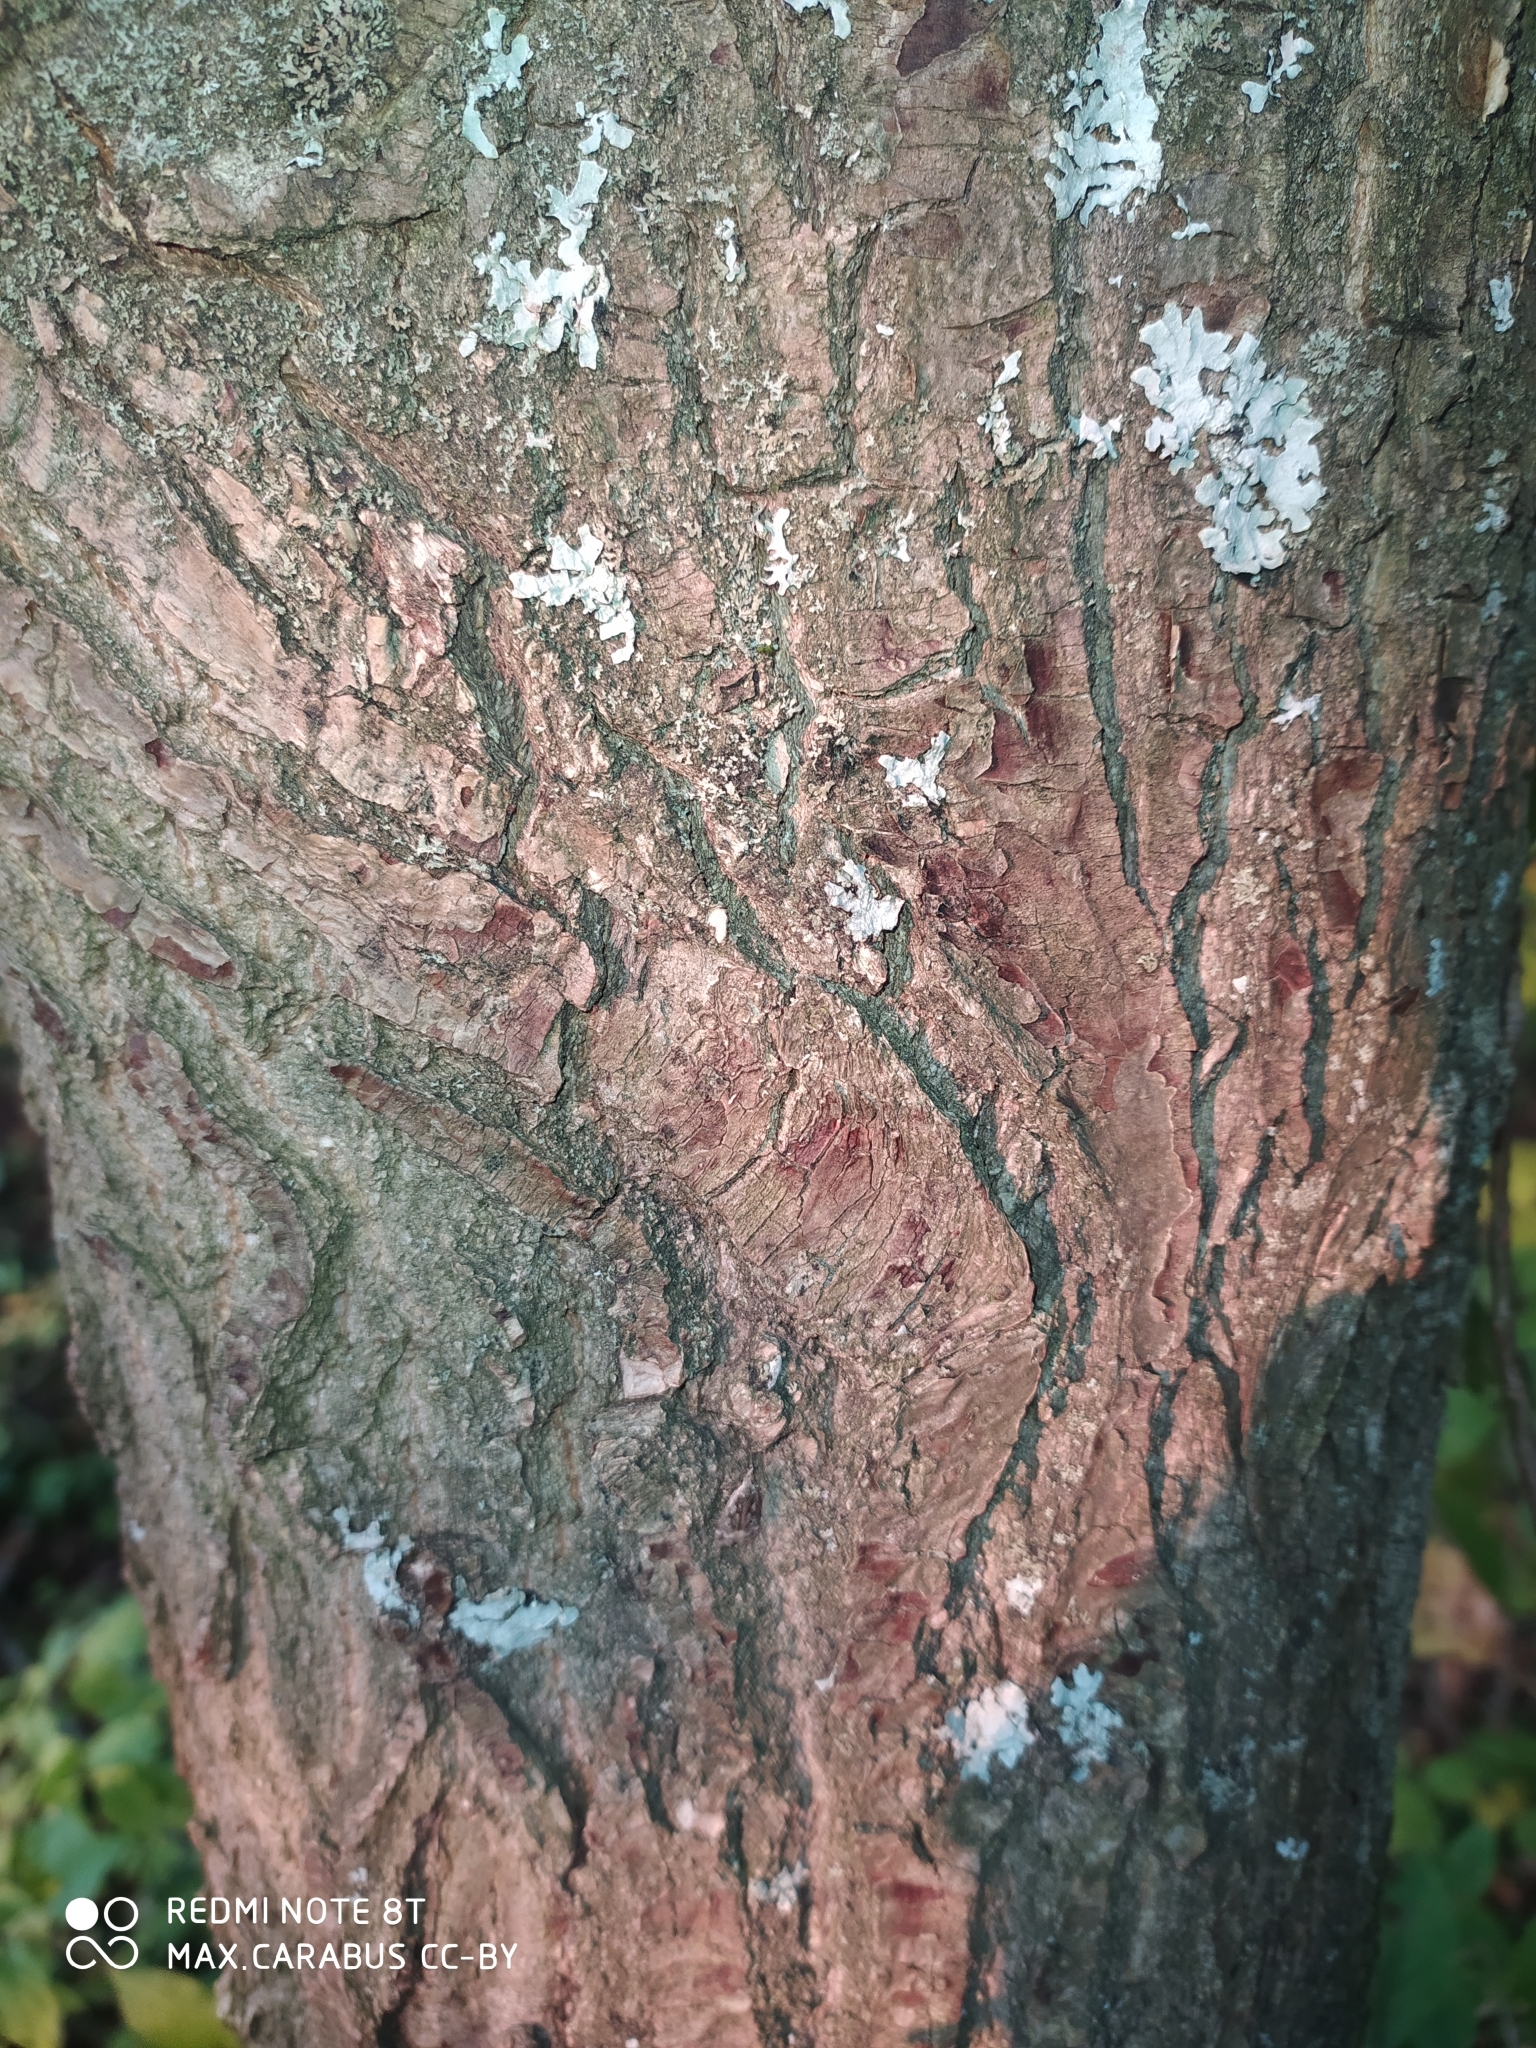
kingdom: Plantae
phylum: Tracheophyta
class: Magnoliopsida
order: Fagales
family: Fagaceae
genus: Quercus
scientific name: Quercus robur
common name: Pedunculate oak
